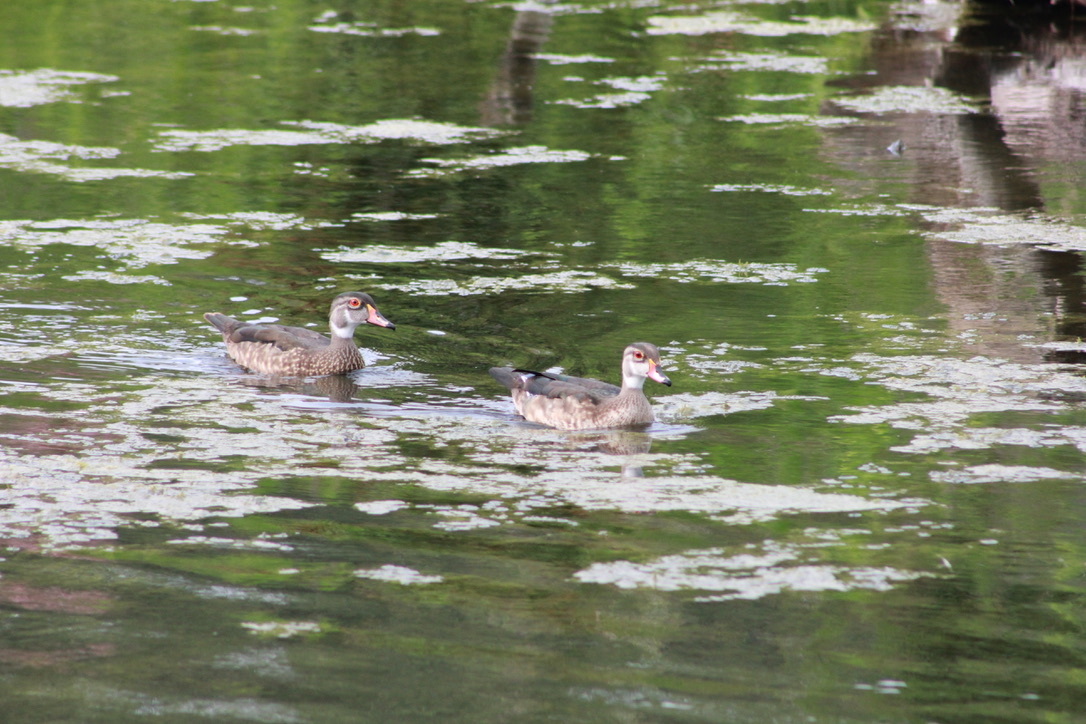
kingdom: Animalia
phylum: Chordata
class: Aves
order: Anseriformes
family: Anatidae
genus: Aix
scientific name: Aix sponsa
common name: Wood duck
